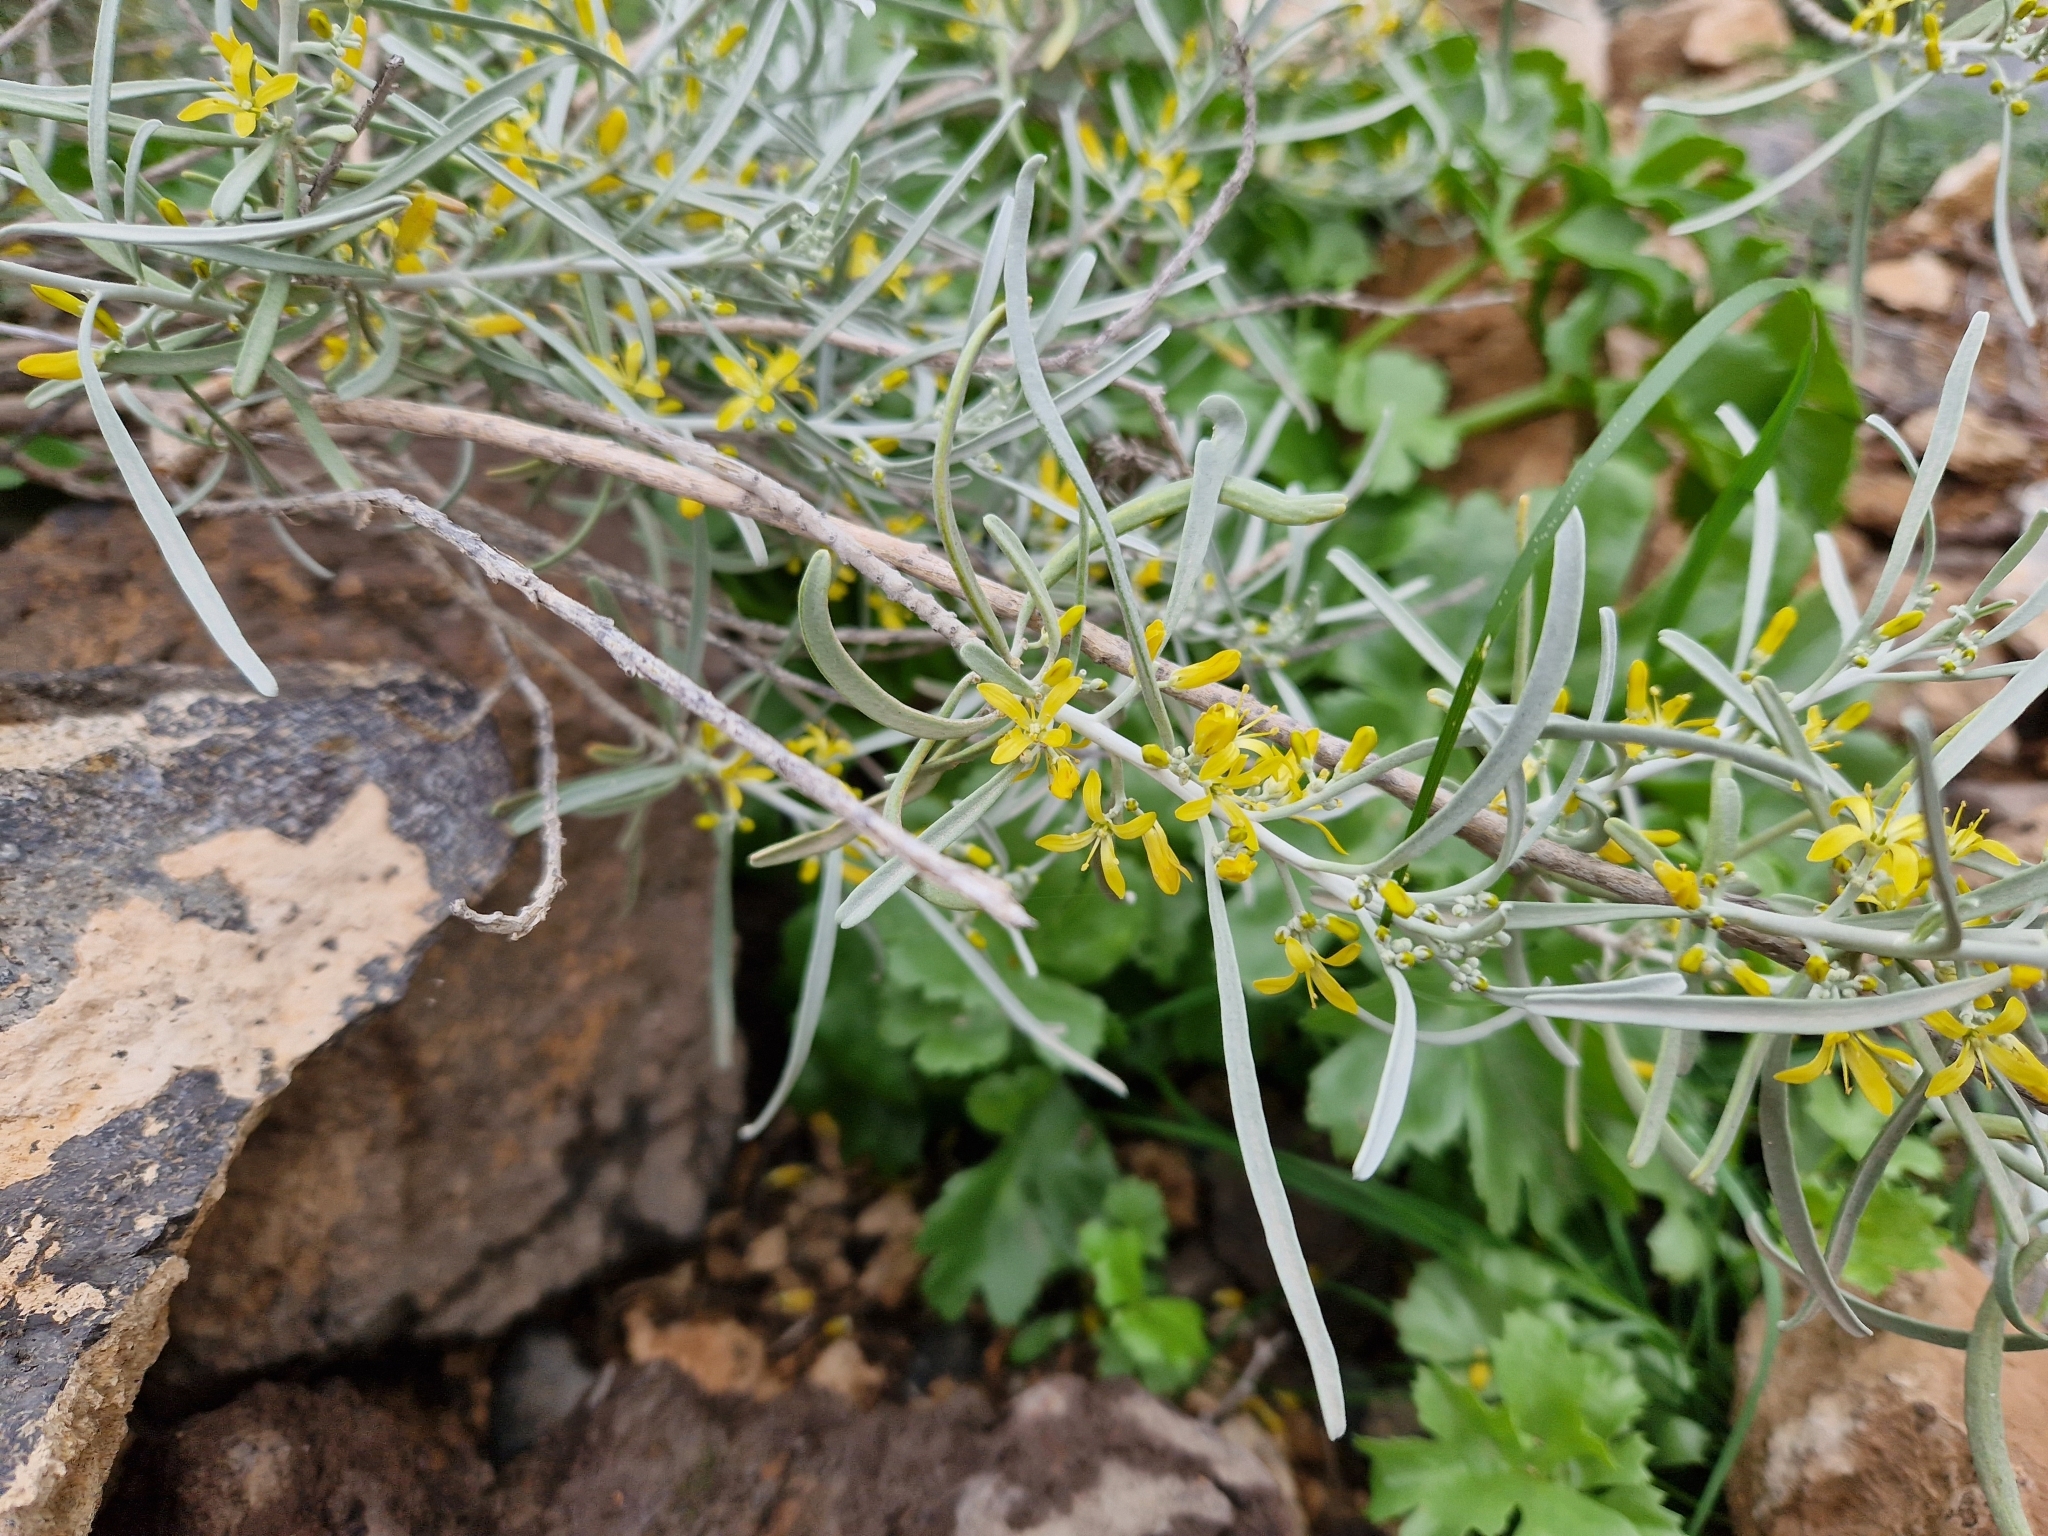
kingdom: Plantae
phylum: Tracheophyta
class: Magnoliopsida
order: Sapindales
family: Rutaceae
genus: Cneorum
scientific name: Cneorum pulverulentum
